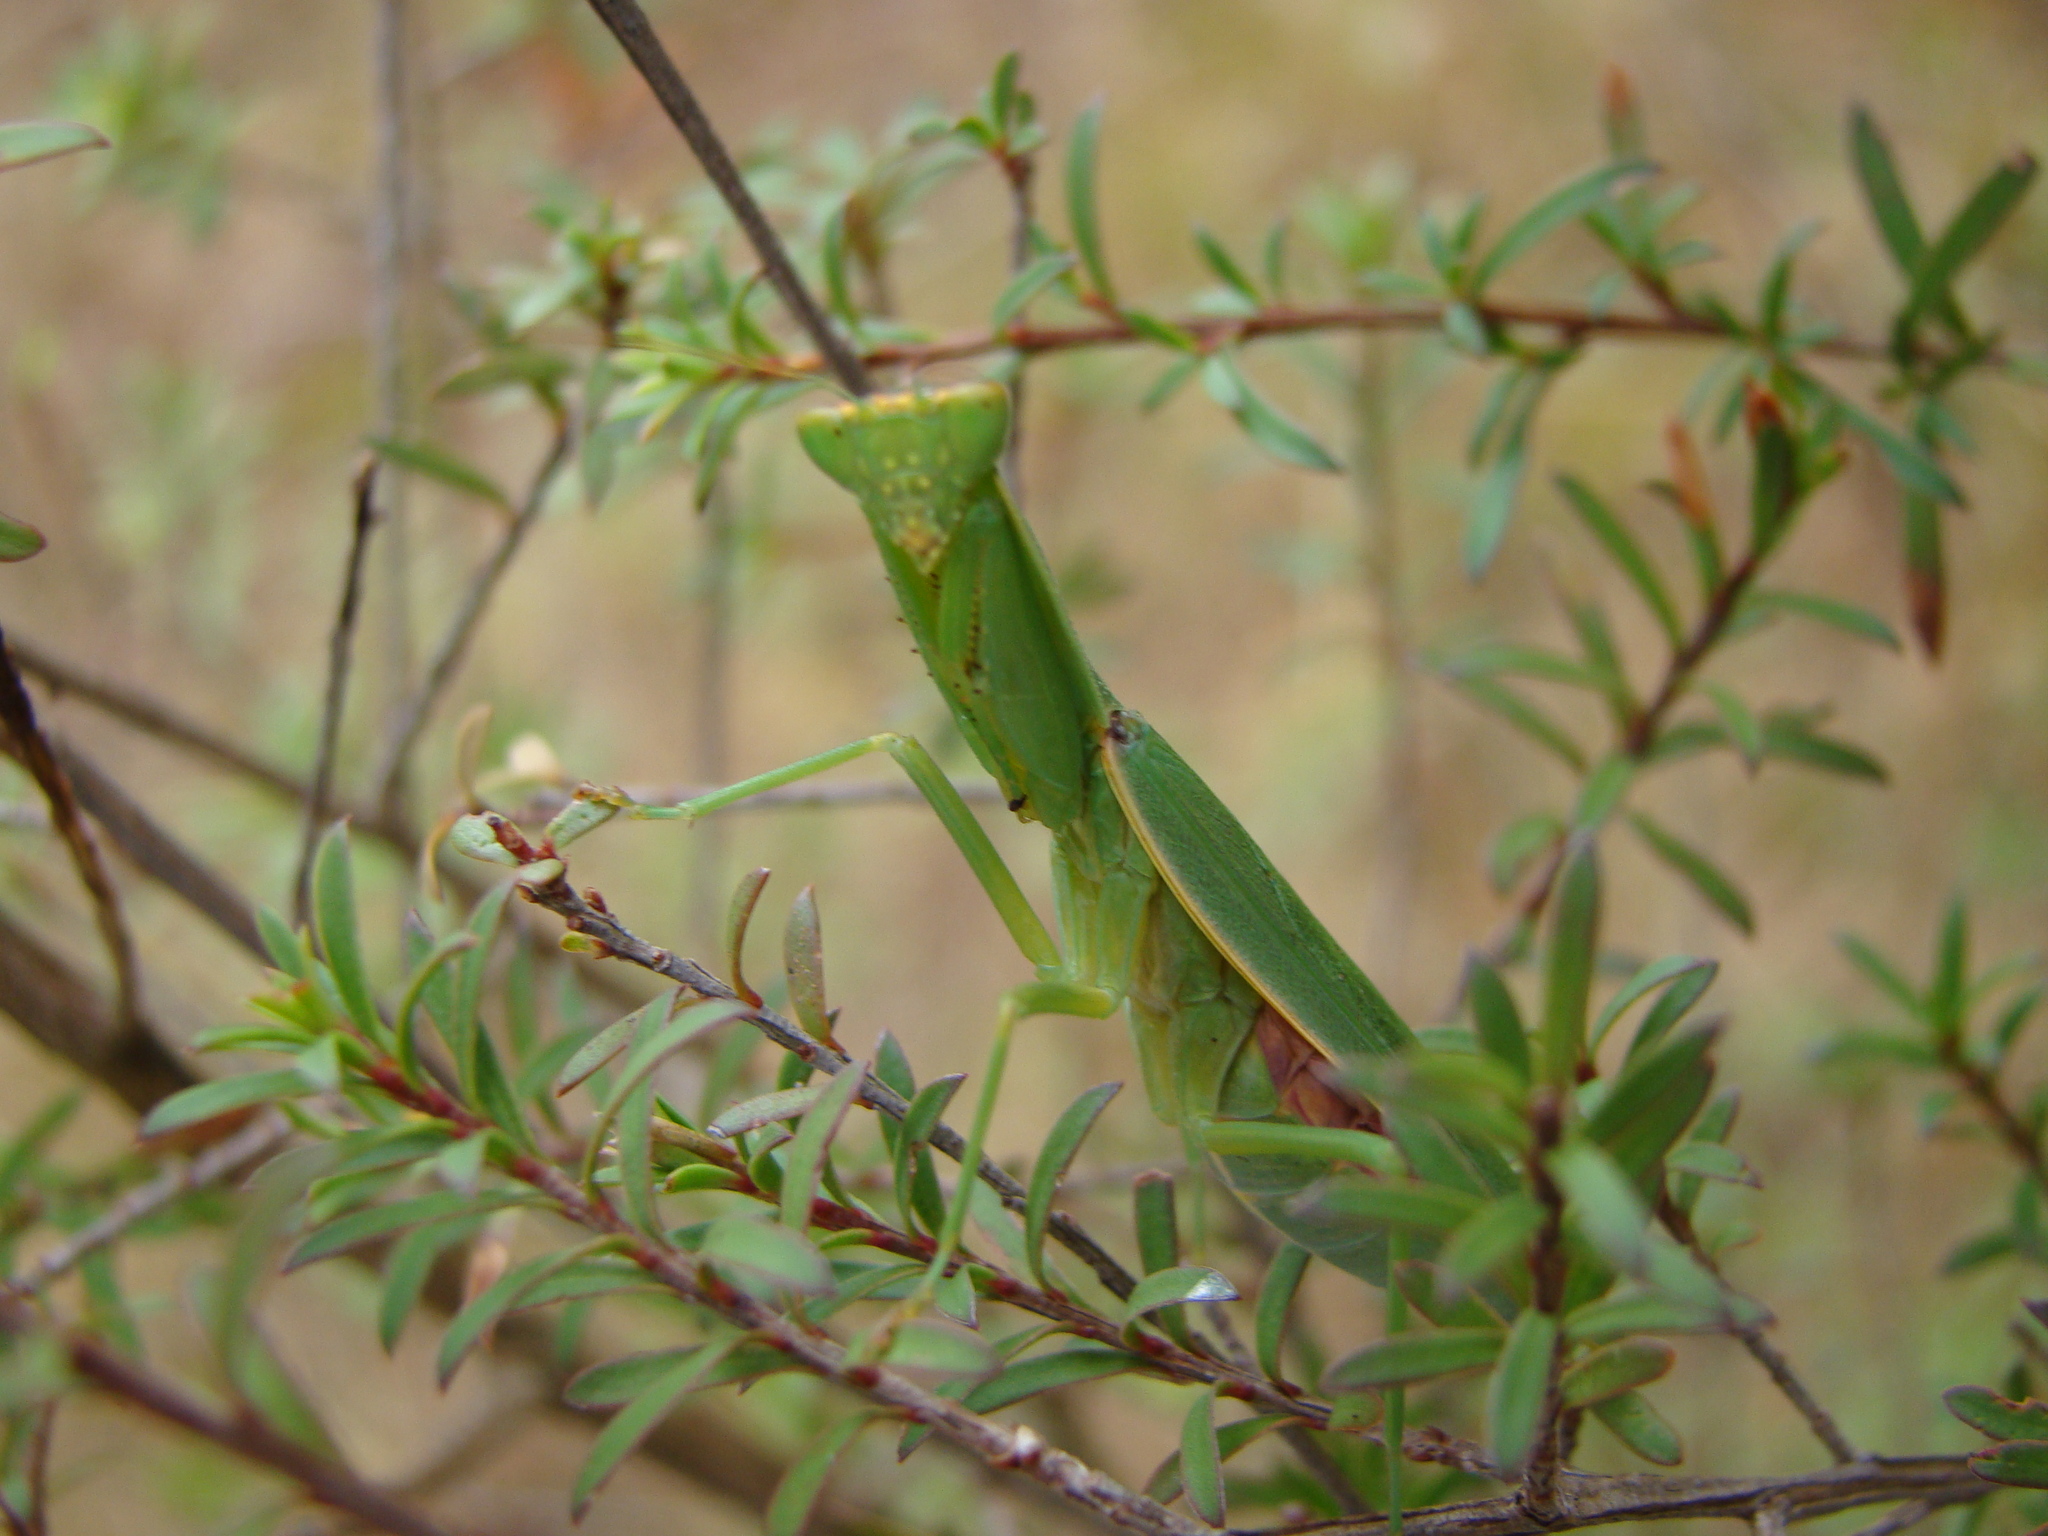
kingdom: Animalia
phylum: Arthropoda
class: Insecta
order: Mantodea
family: Mantidae
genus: Orthodera
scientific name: Orthodera novaezealandiae
